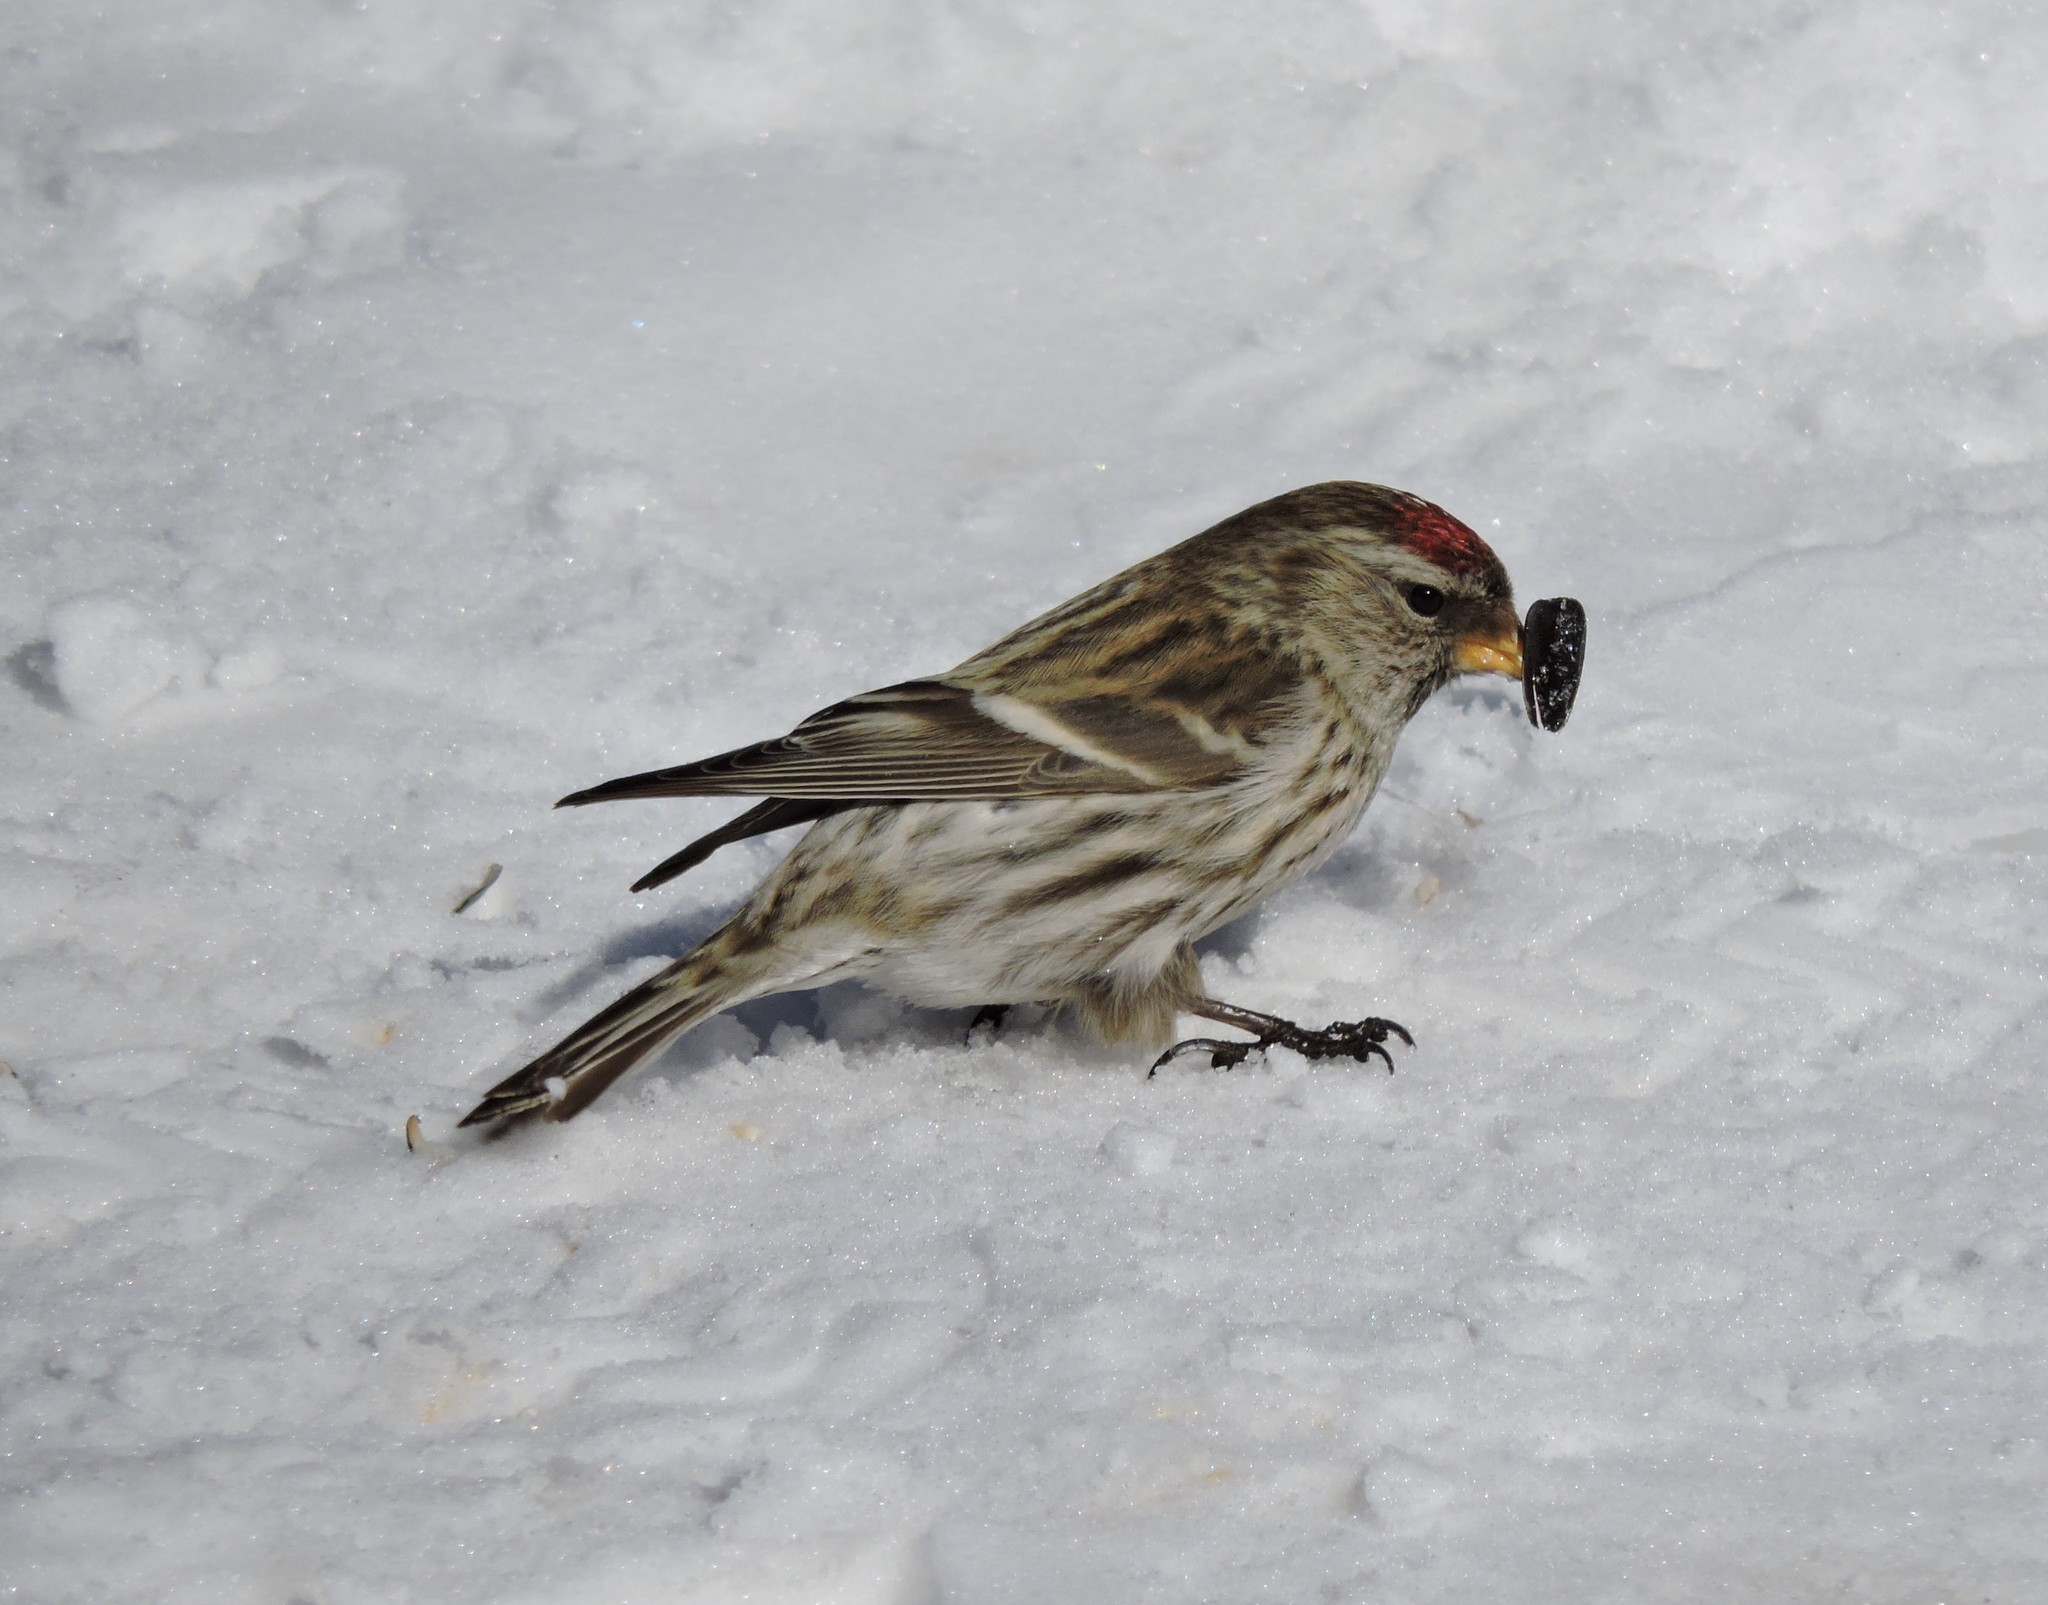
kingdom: Animalia
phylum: Chordata
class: Aves
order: Passeriformes
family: Fringillidae
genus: Acanthis
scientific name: Acanthis flammea
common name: Common redpoll
